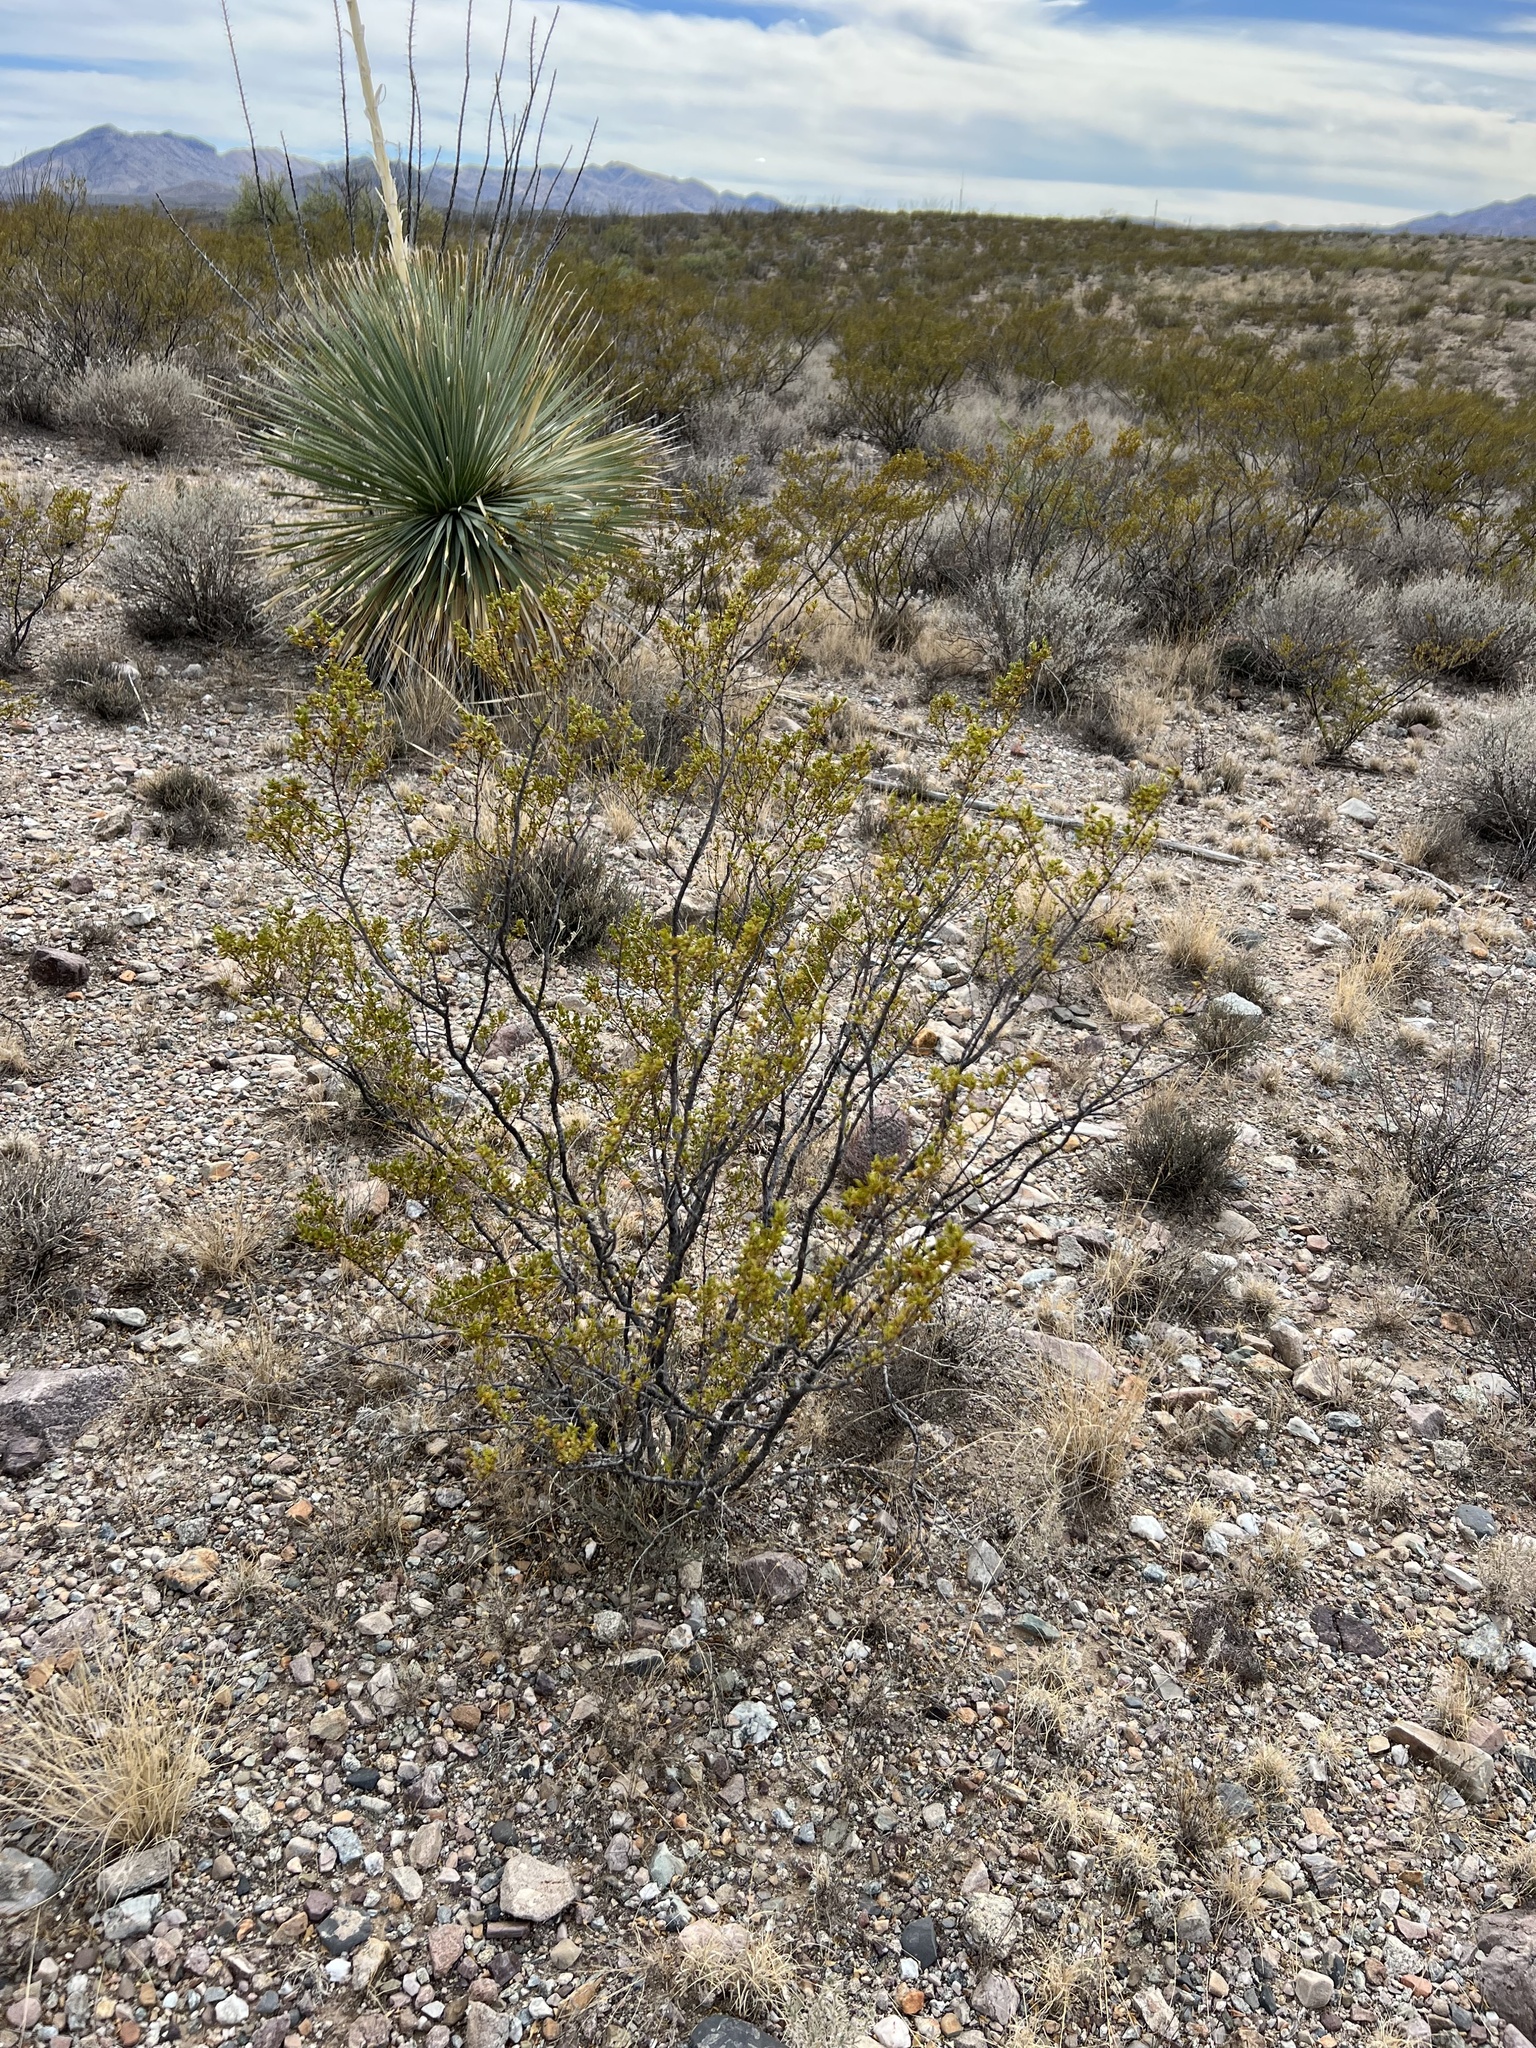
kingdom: Plantae
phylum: Tracheophyta
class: Magnoliopsida
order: Zygophyllales
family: Zygophyllaceae
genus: Larrea
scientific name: Larrea tridentata
